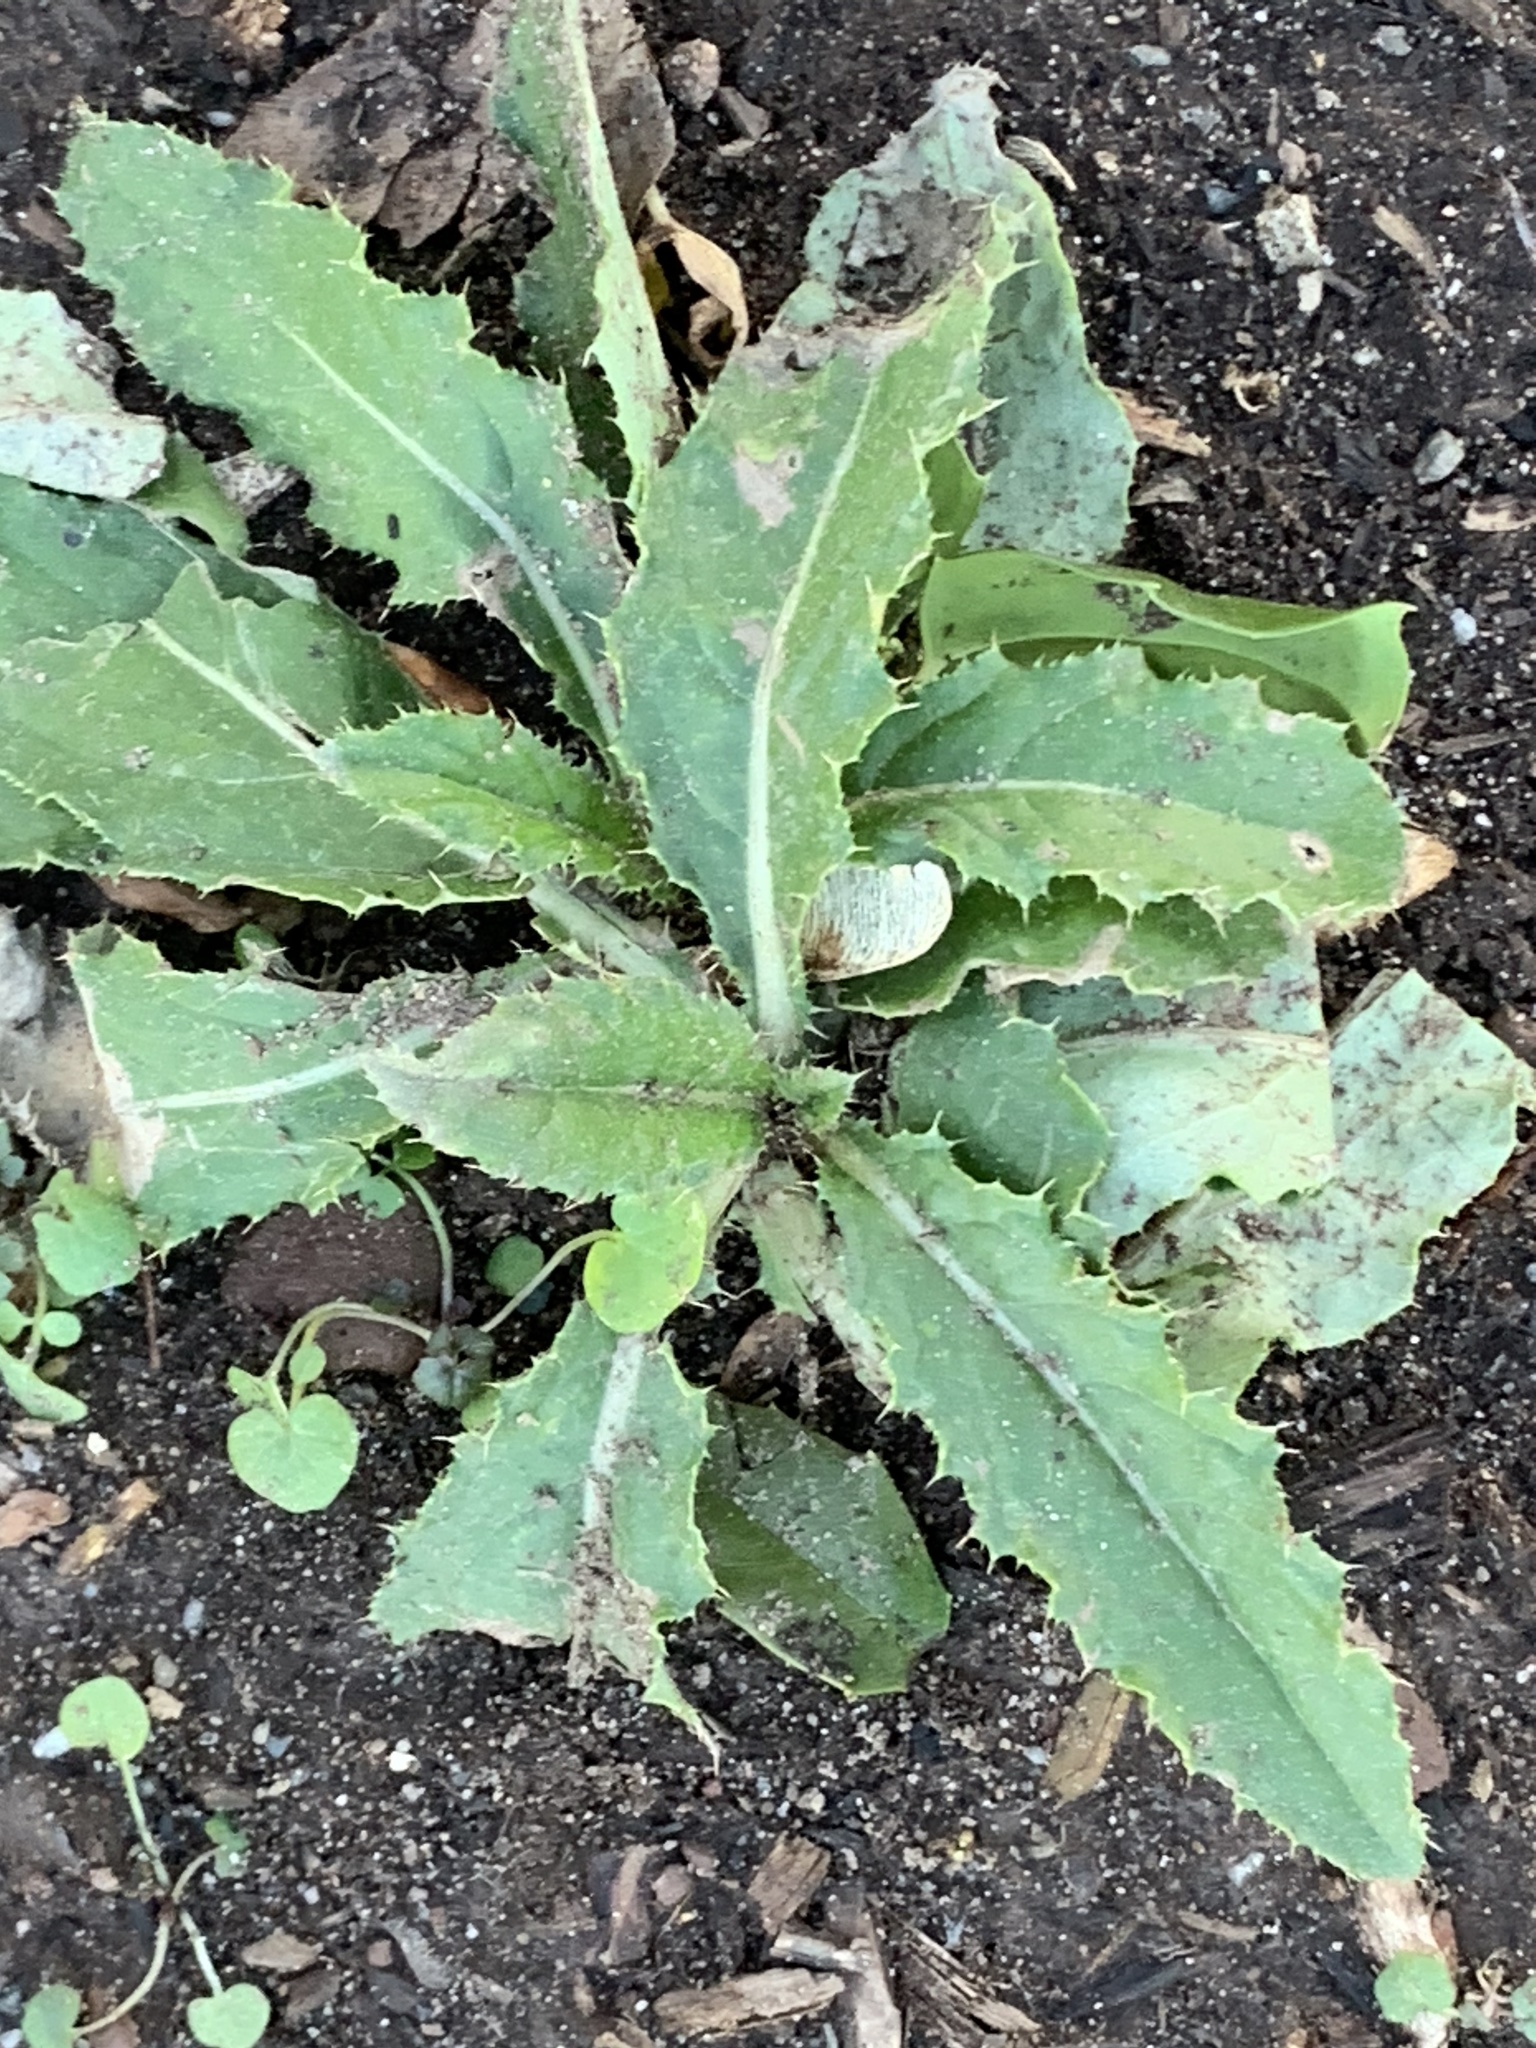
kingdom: Plantae
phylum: Tracheophyta
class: Magnoliopsida
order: Asterales
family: Asteraceae
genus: Cirsium
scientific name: Cirsium arvense
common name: Creeping thistle
